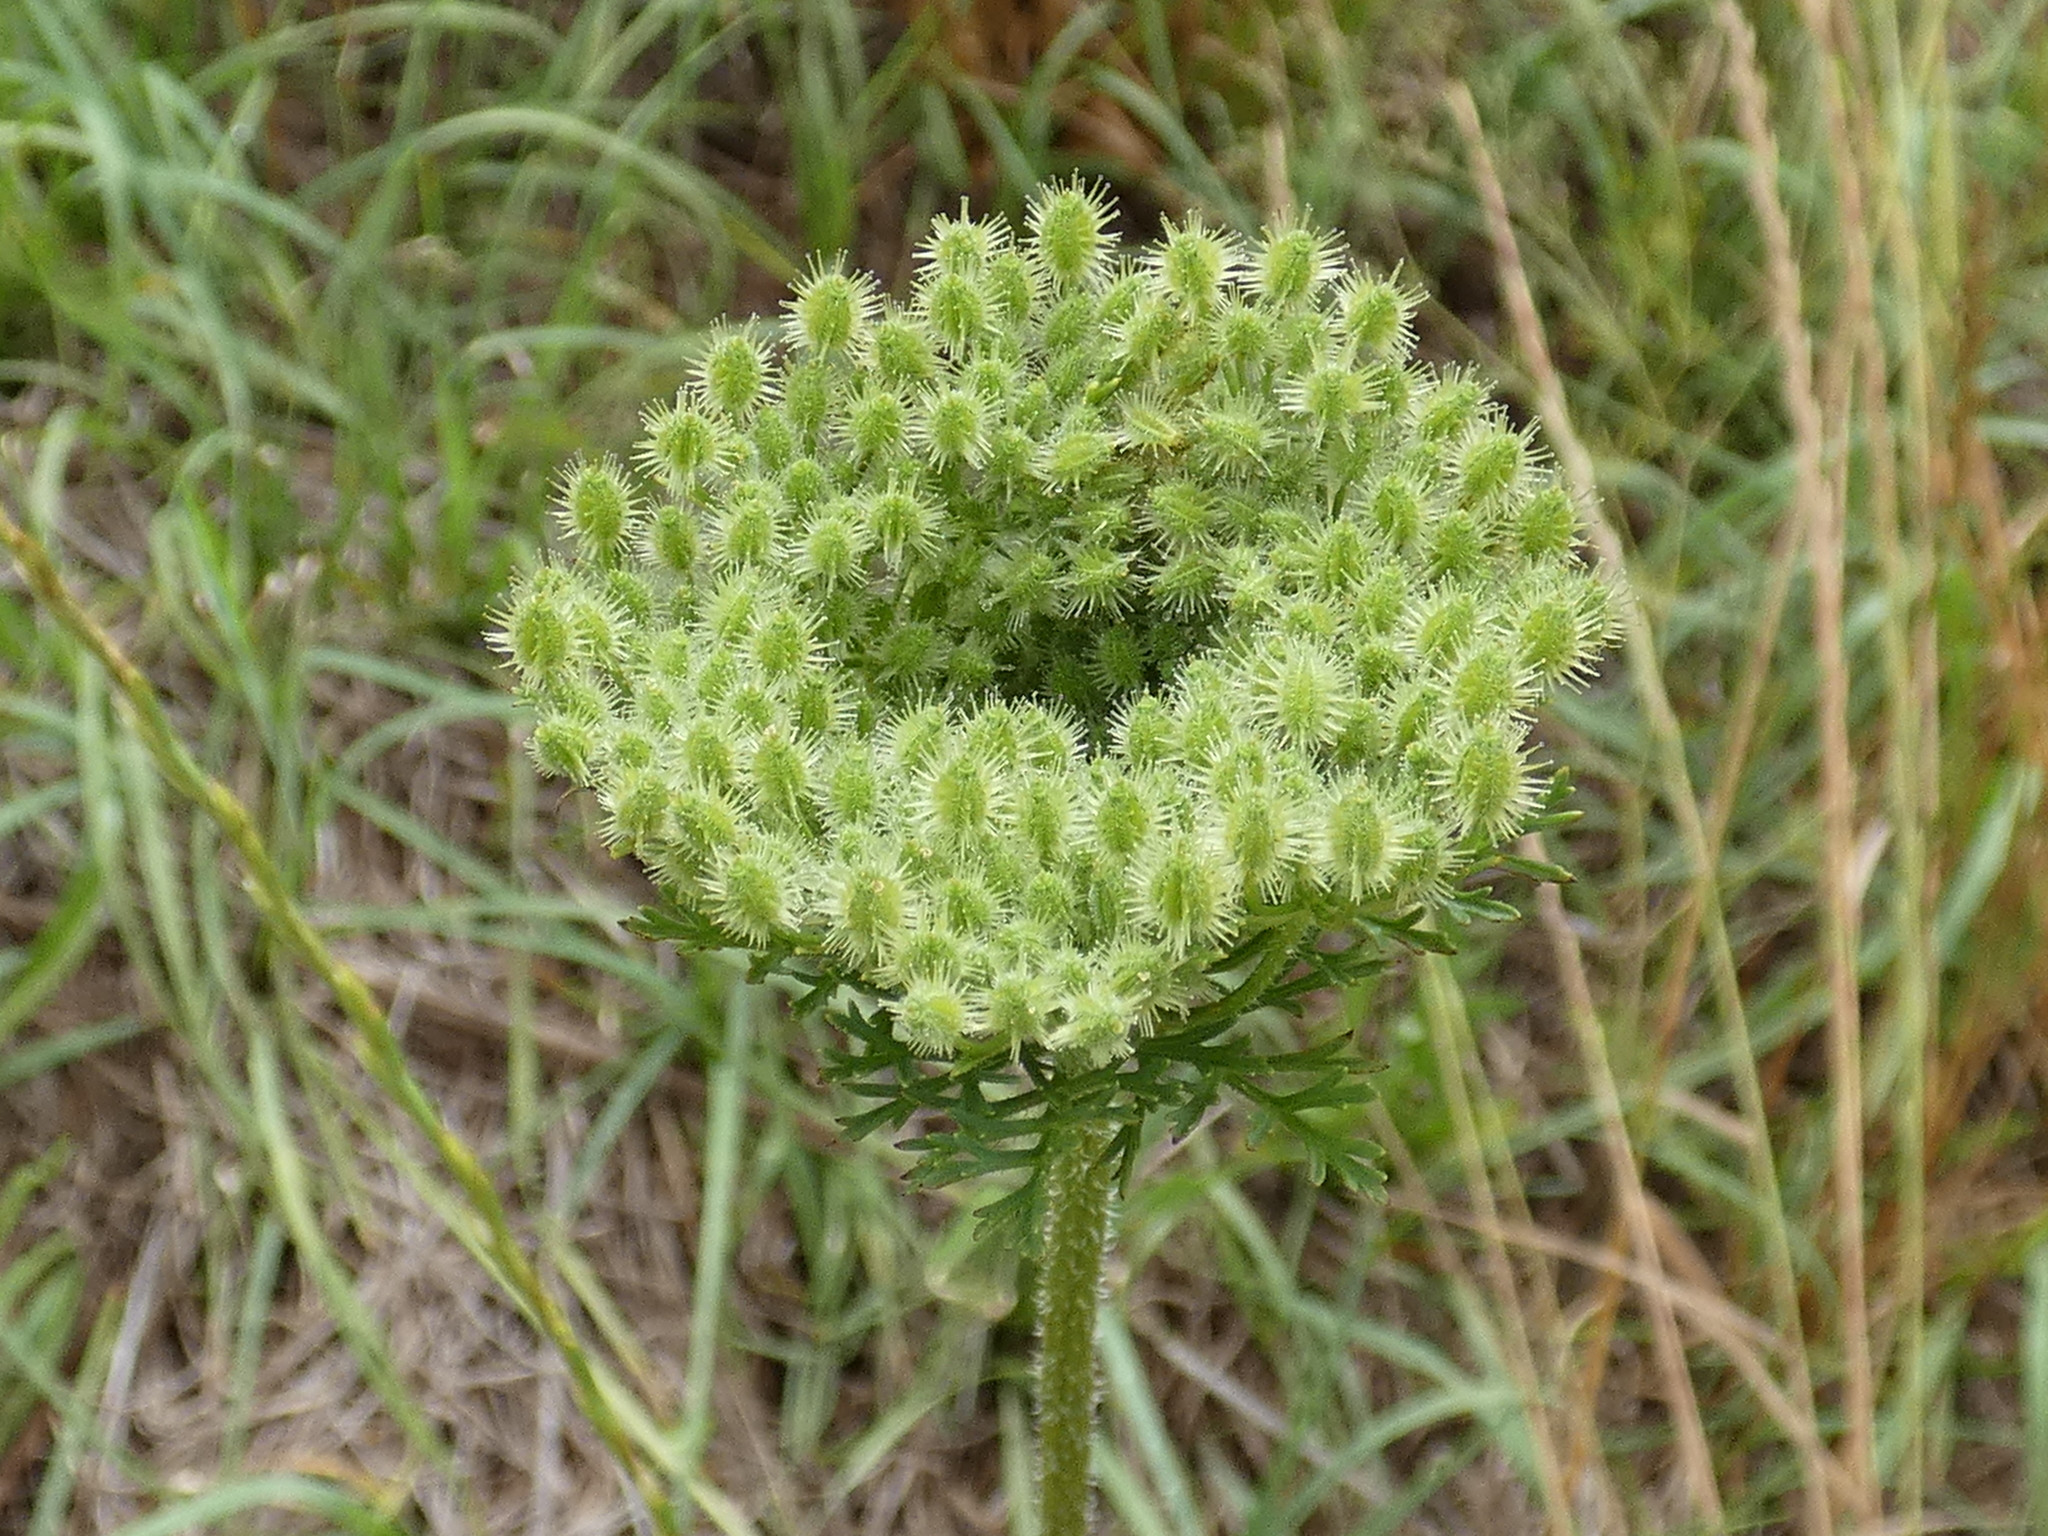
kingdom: Plantae
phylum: Tracheophyta
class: Magnoliopsida
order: Apiales
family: Apiaceae
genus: Daucus
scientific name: Daucus pusillus
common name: Southwest wild carrot
